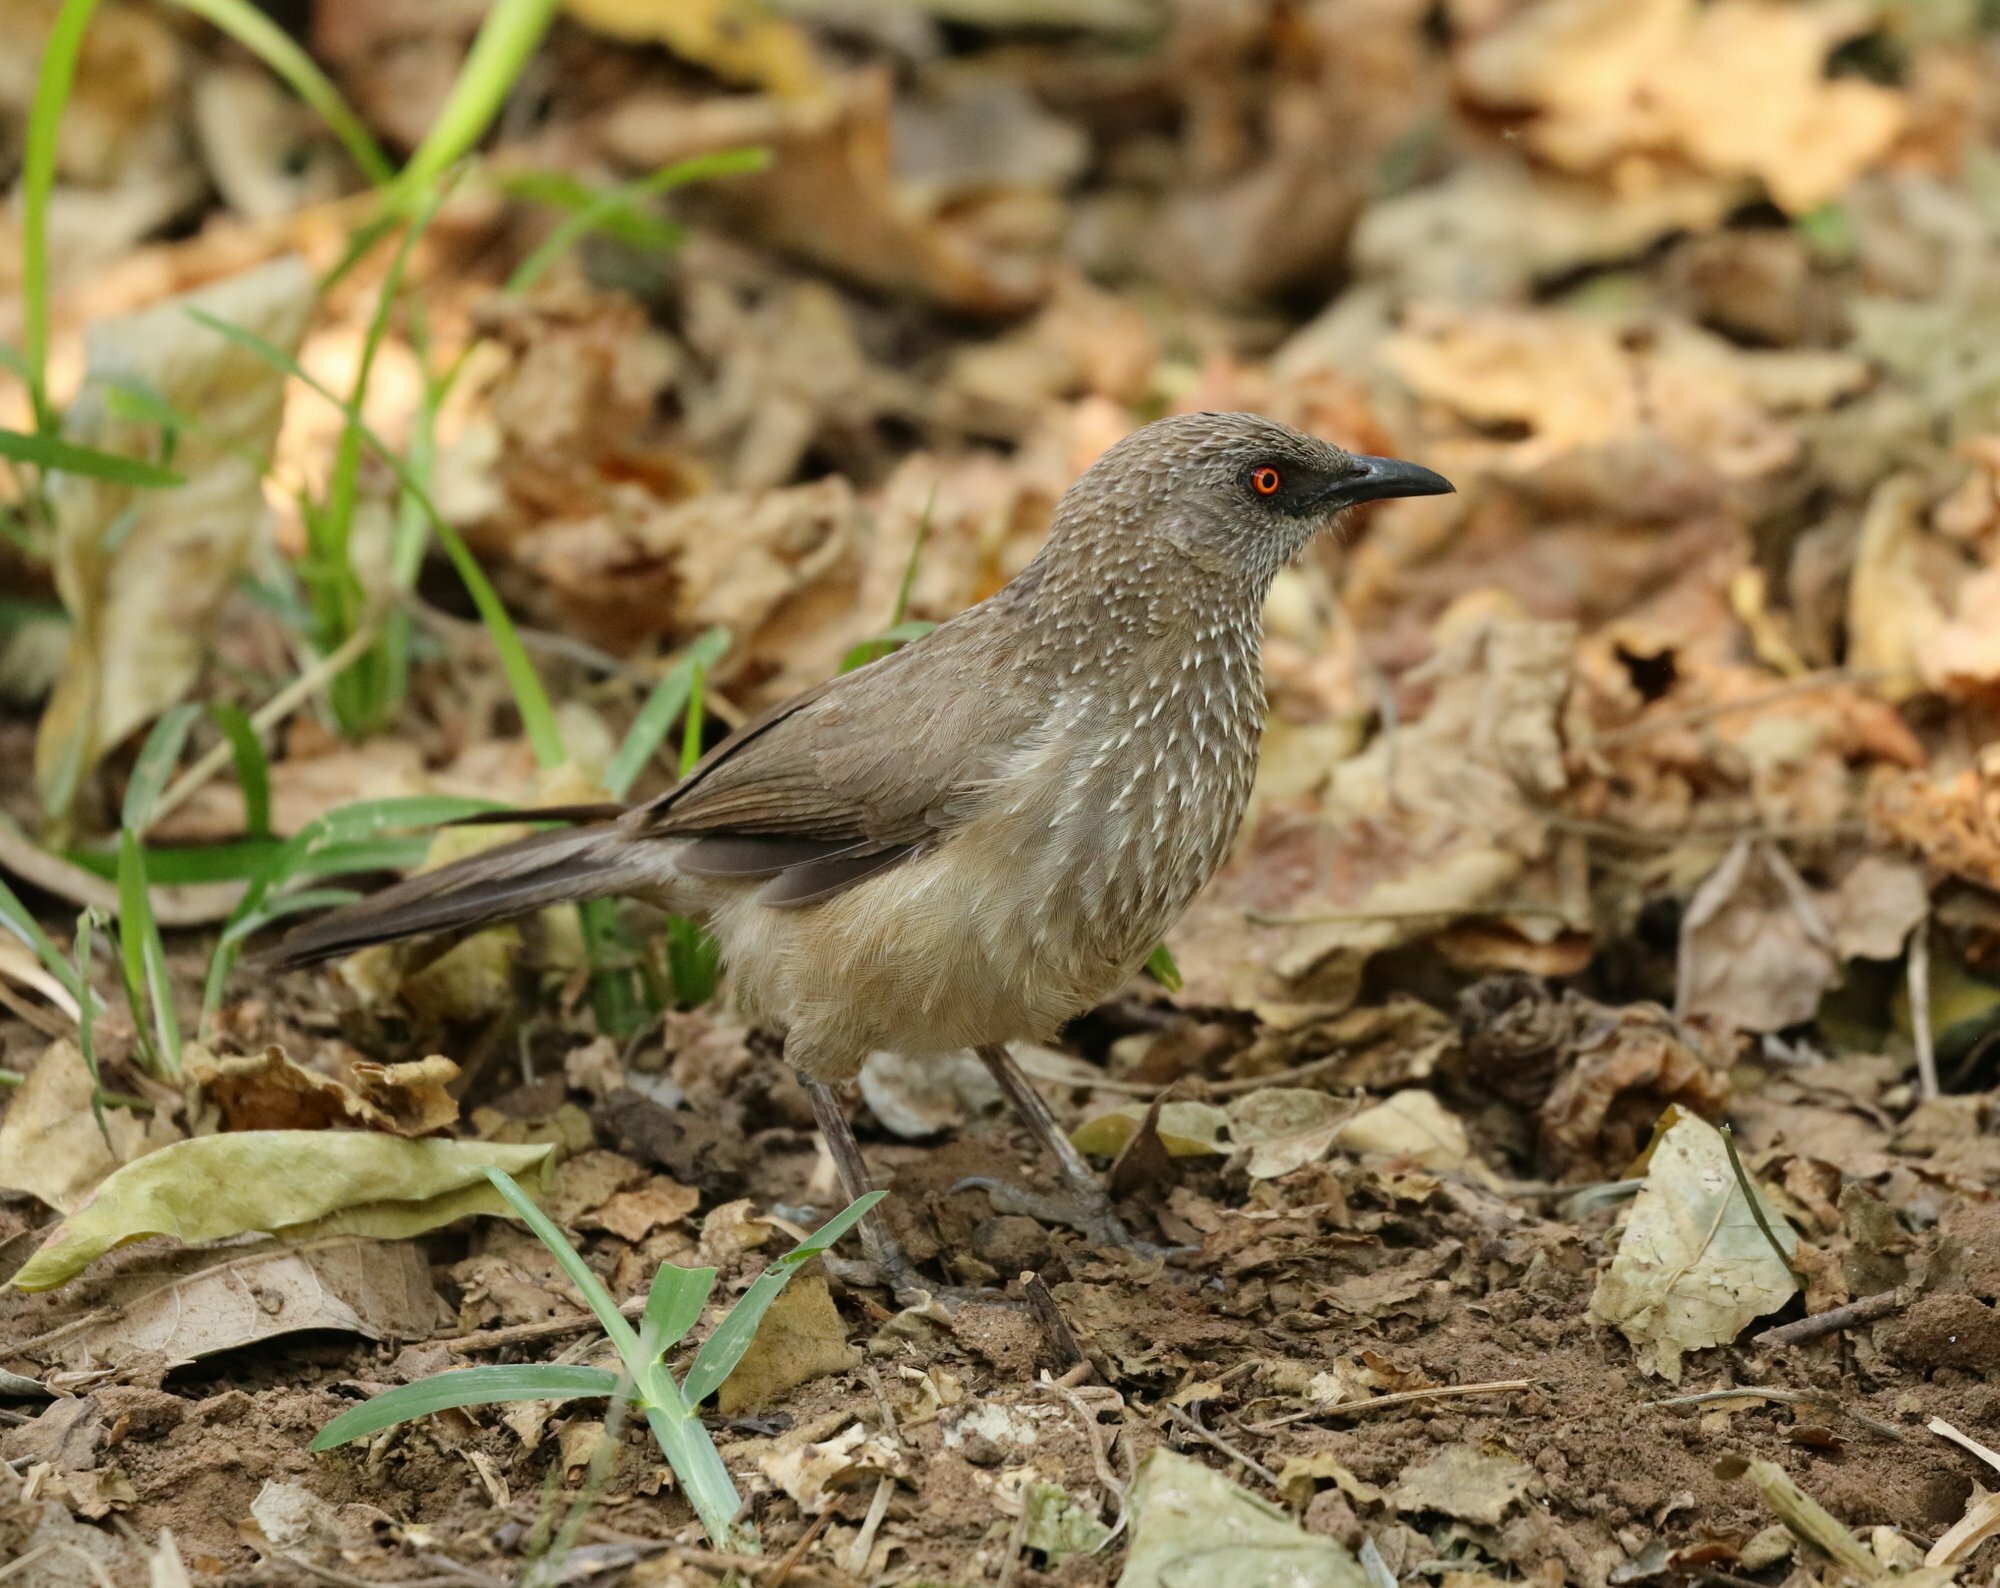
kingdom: Animalia
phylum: Chordata
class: Aves
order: Passeriformes
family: Leiothrichidae
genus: Turdoides
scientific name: Turdoides jardineii
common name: Arrow-marked babbler
